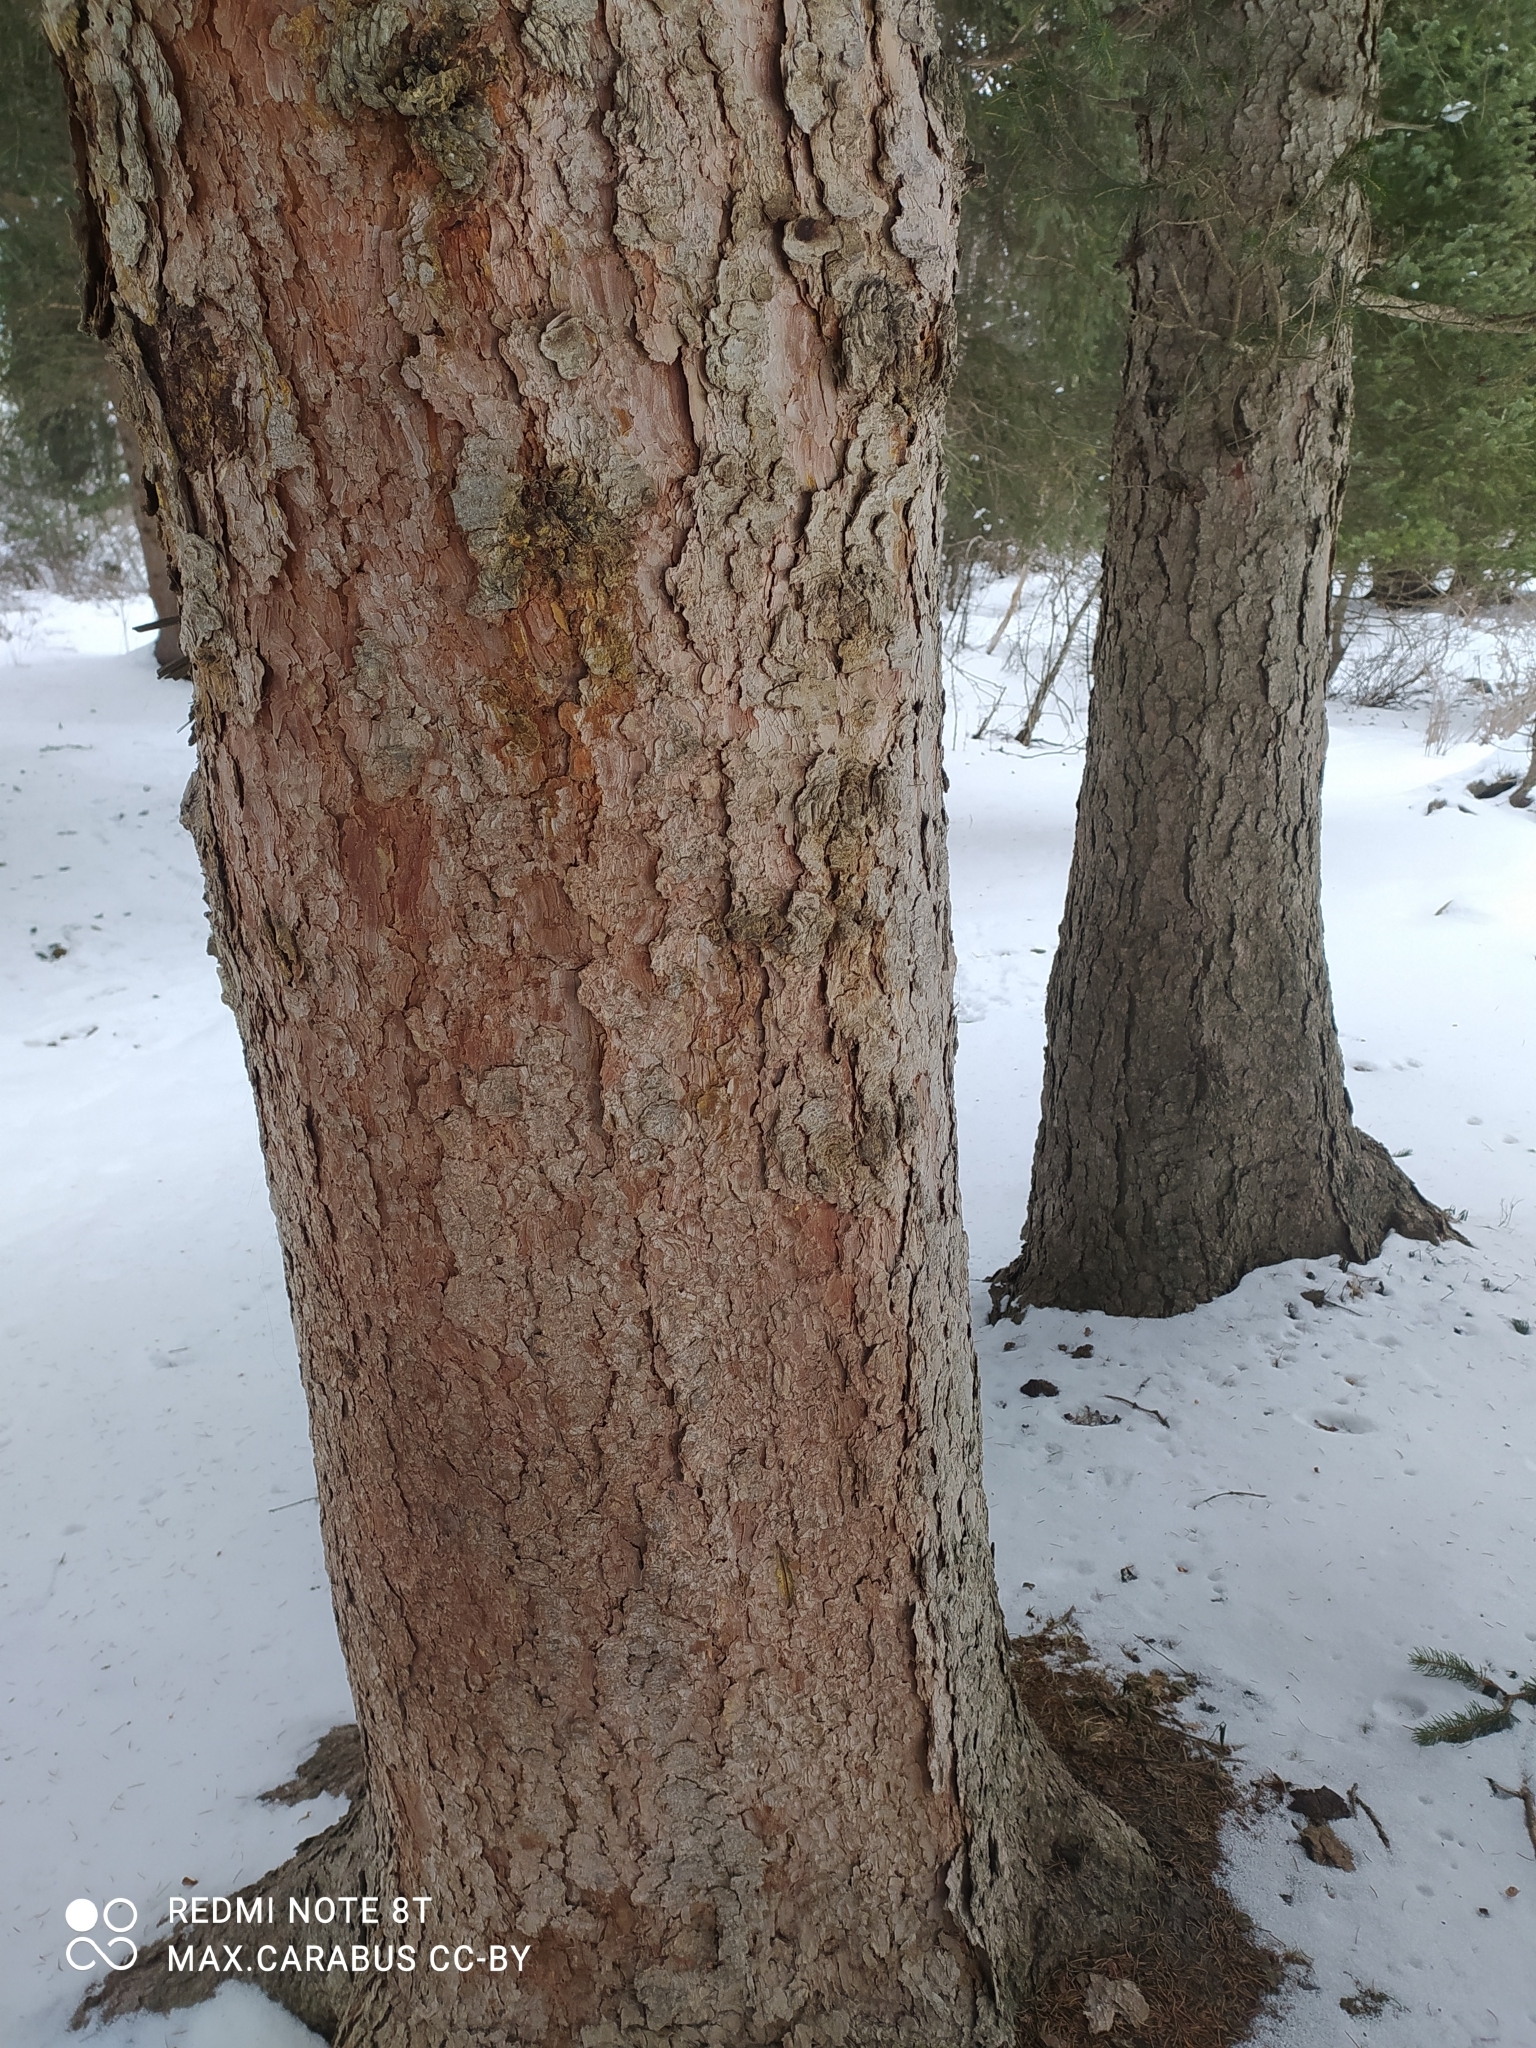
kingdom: Plantae
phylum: Tracheophyta
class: Pinopsida
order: Pinales
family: Pinaceae
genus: Picea
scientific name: Picea schrenkiana
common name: Asian spruce
